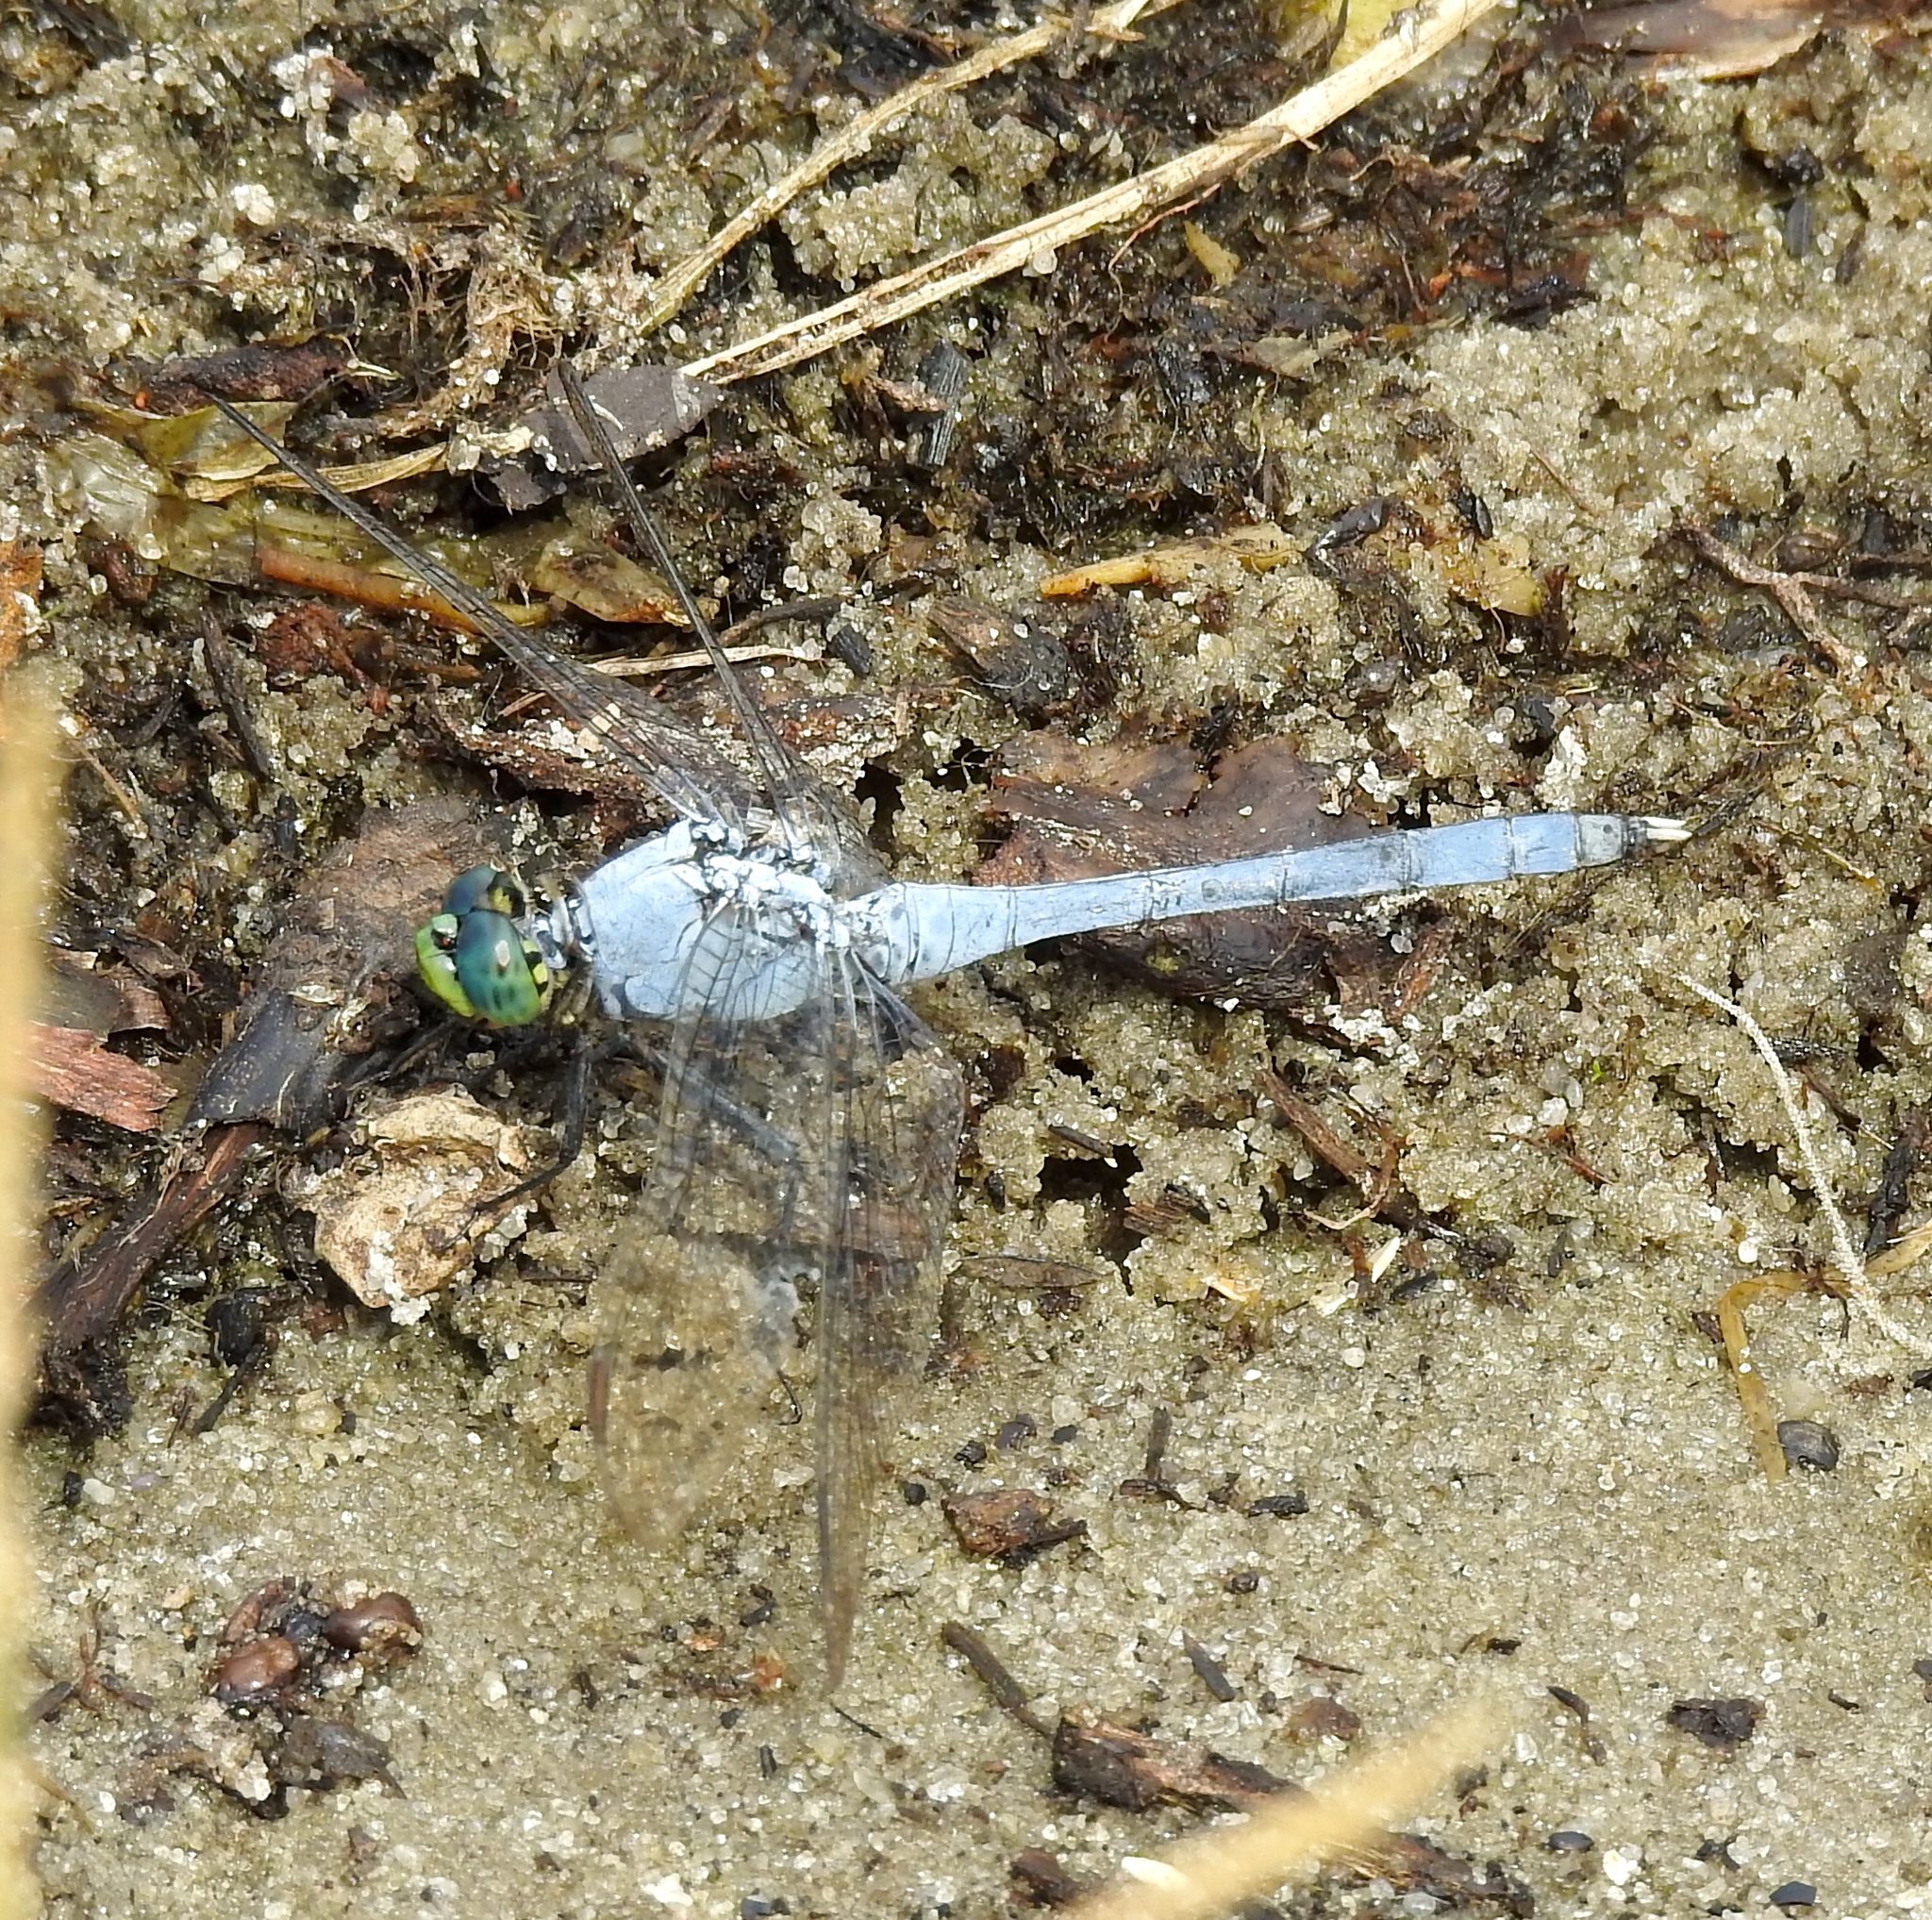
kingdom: Animalia
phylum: Arthropoda
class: Insecta
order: Odonata
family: Libellulidae
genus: Erythemis
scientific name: Erythemis simplicicollis
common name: Eastern pondhawk
